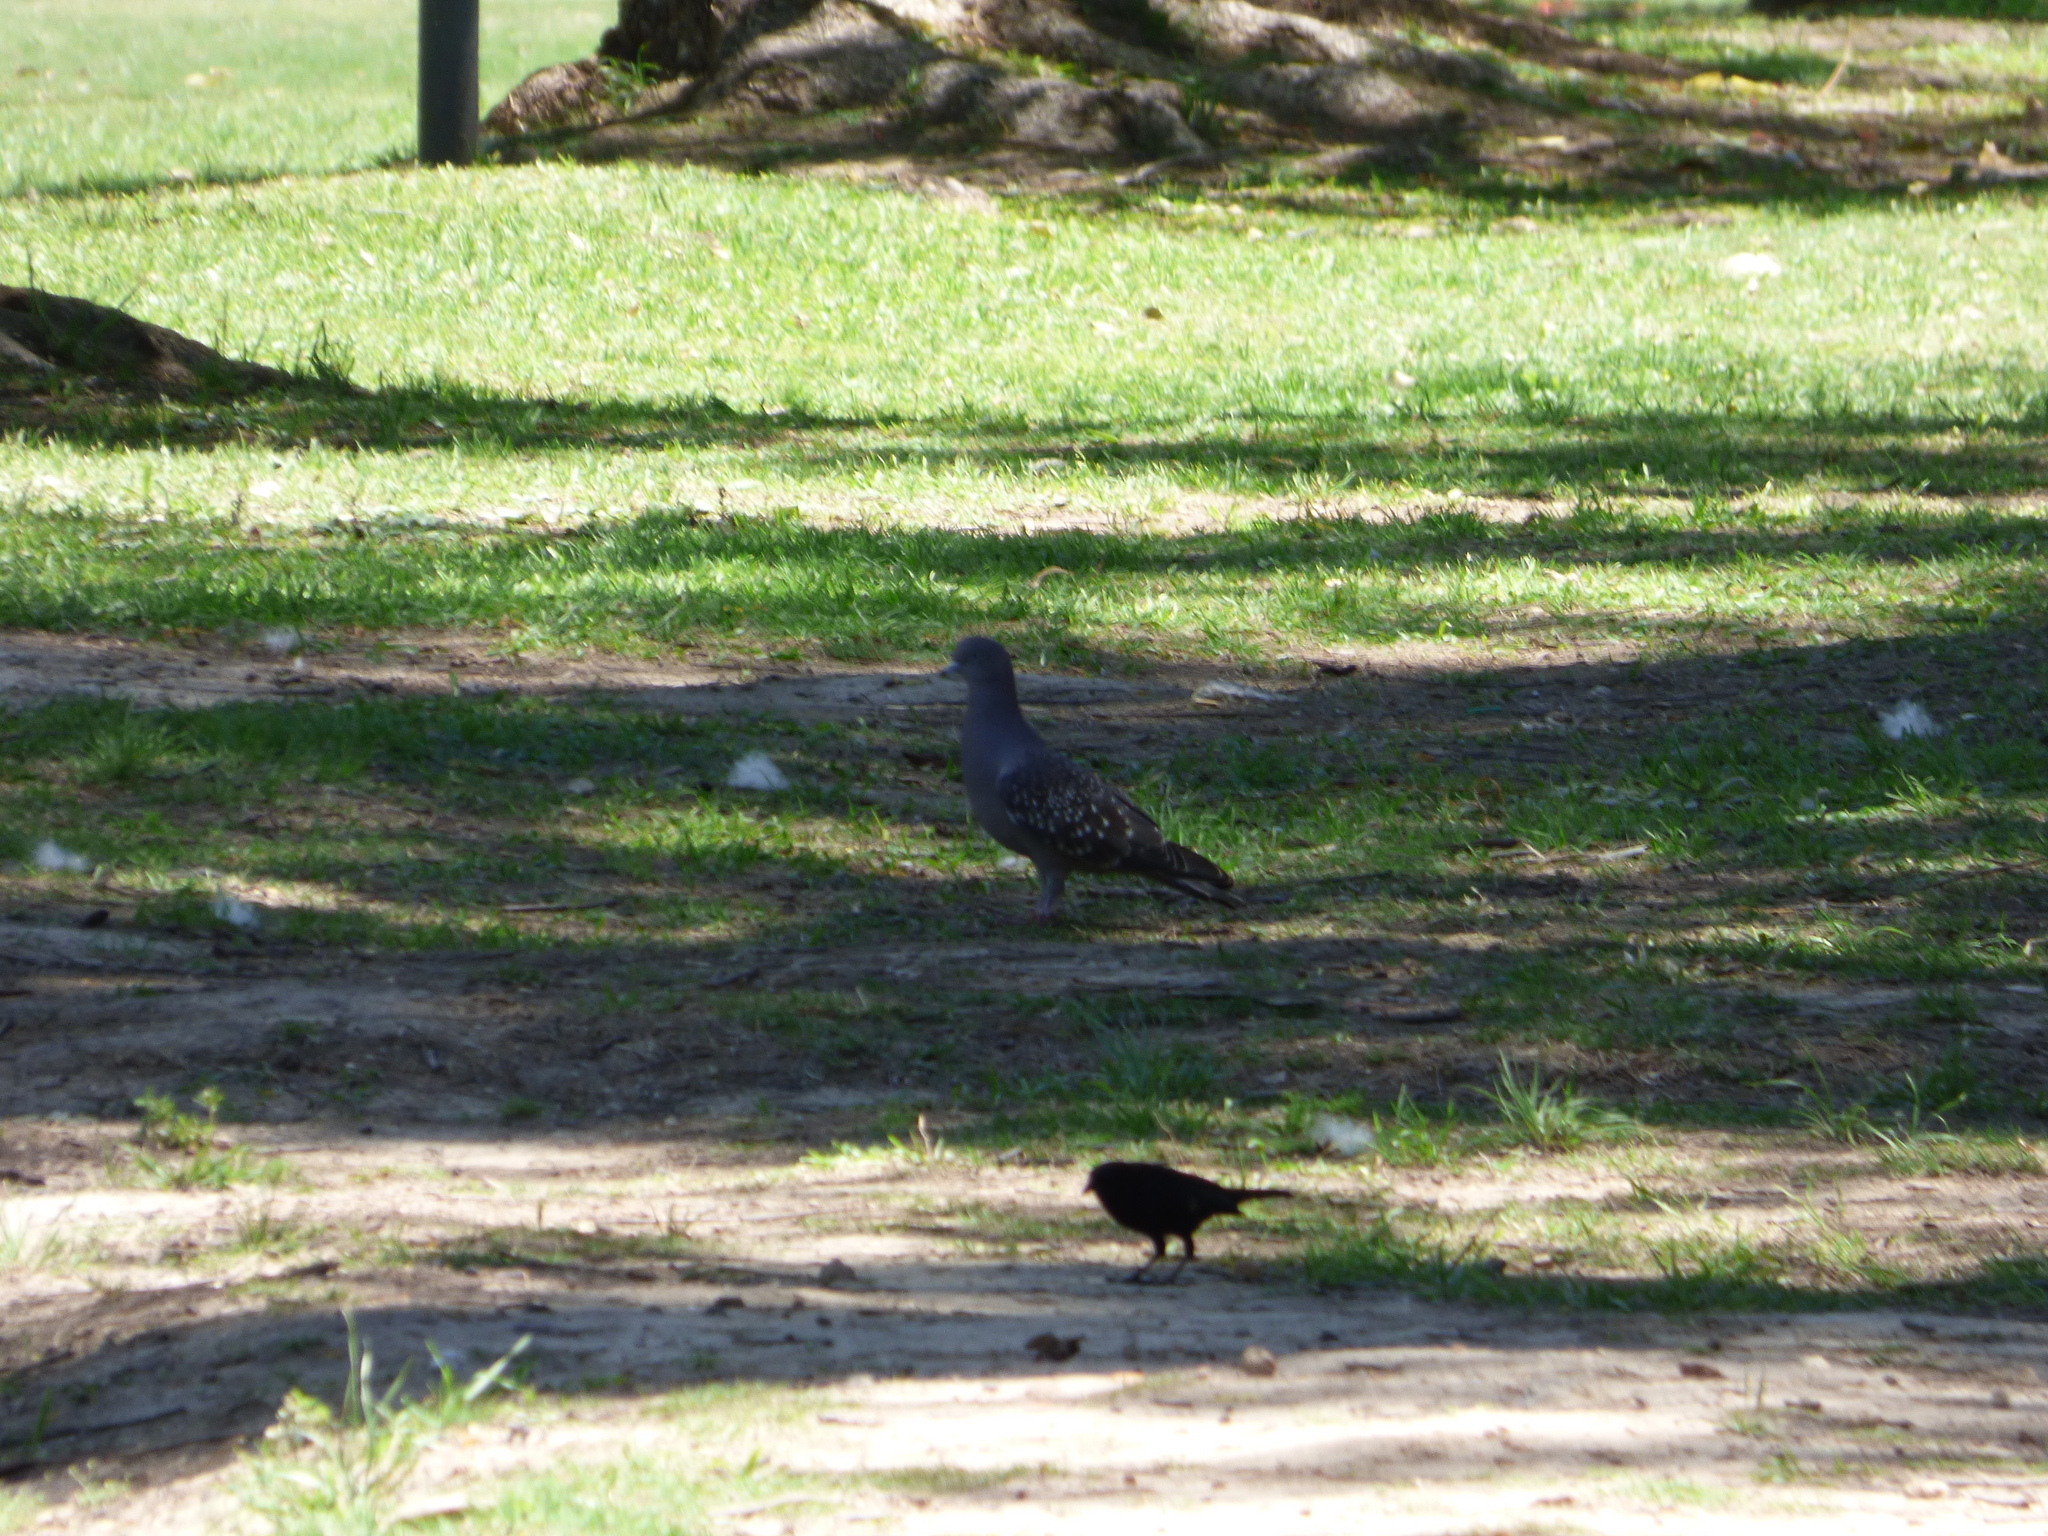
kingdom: Animalia
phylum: Chordata
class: Aves
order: Columbiformes
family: Columbidae
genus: Patagioenas
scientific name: Patagioenas maculosa
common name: Spot-winged pigeon
